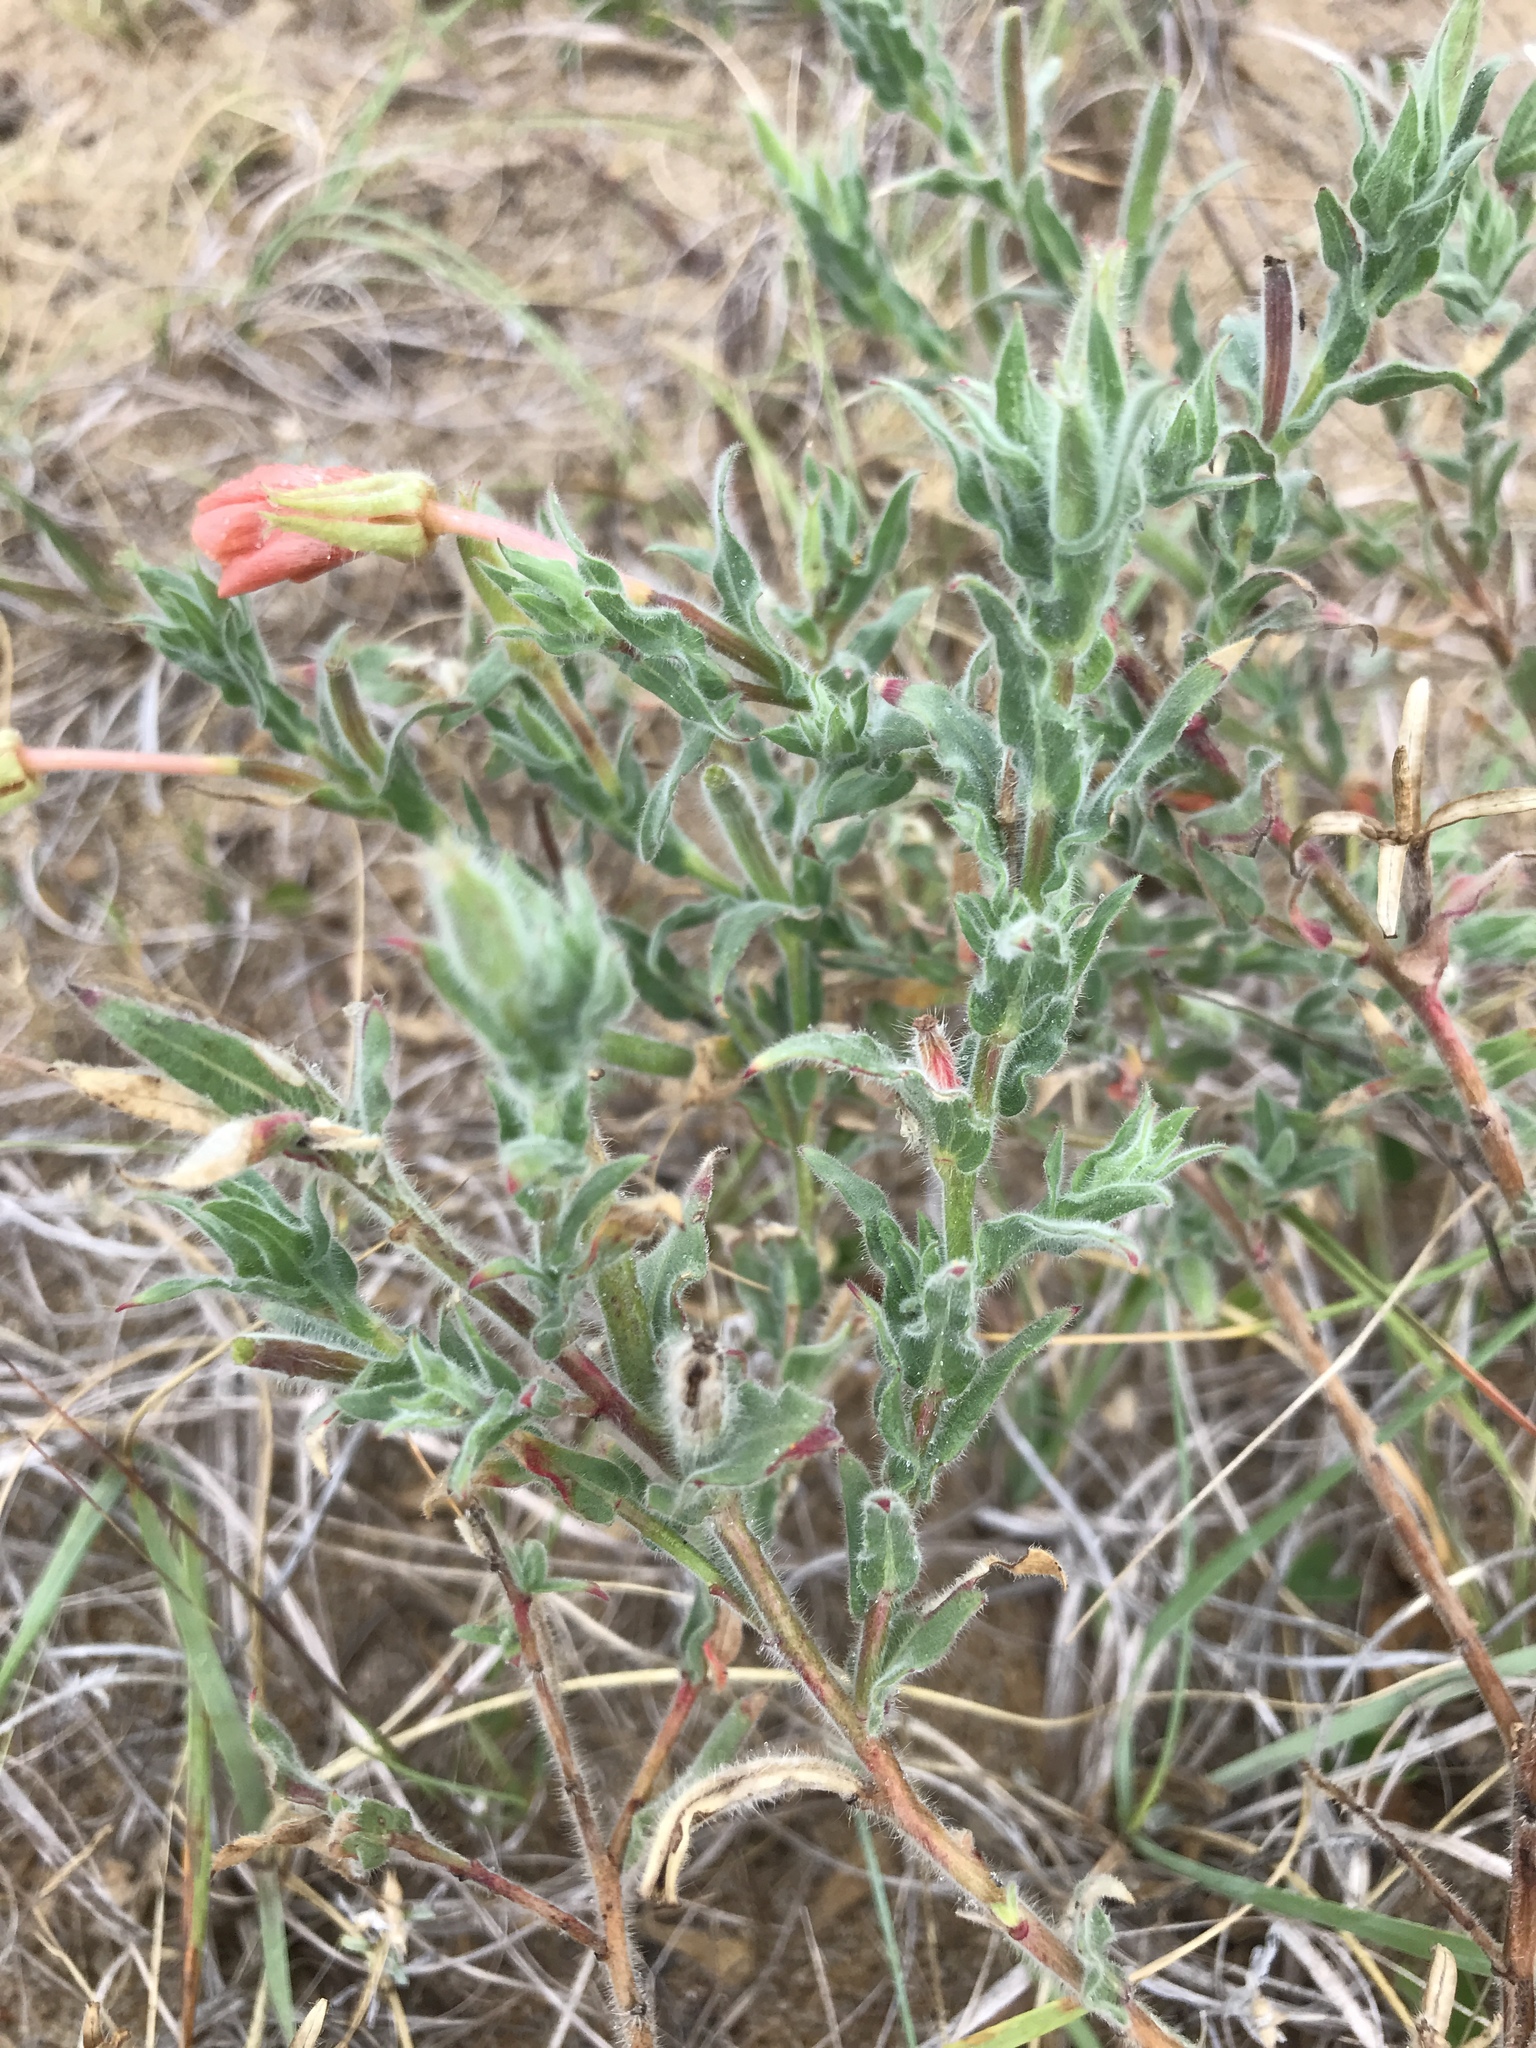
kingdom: Plantae
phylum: Tracheophyta
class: Magnoliopsida
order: Myrtales
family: Onagraceae
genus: Oenothera
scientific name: Oenothera mollissima
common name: Argentine evening primrose
